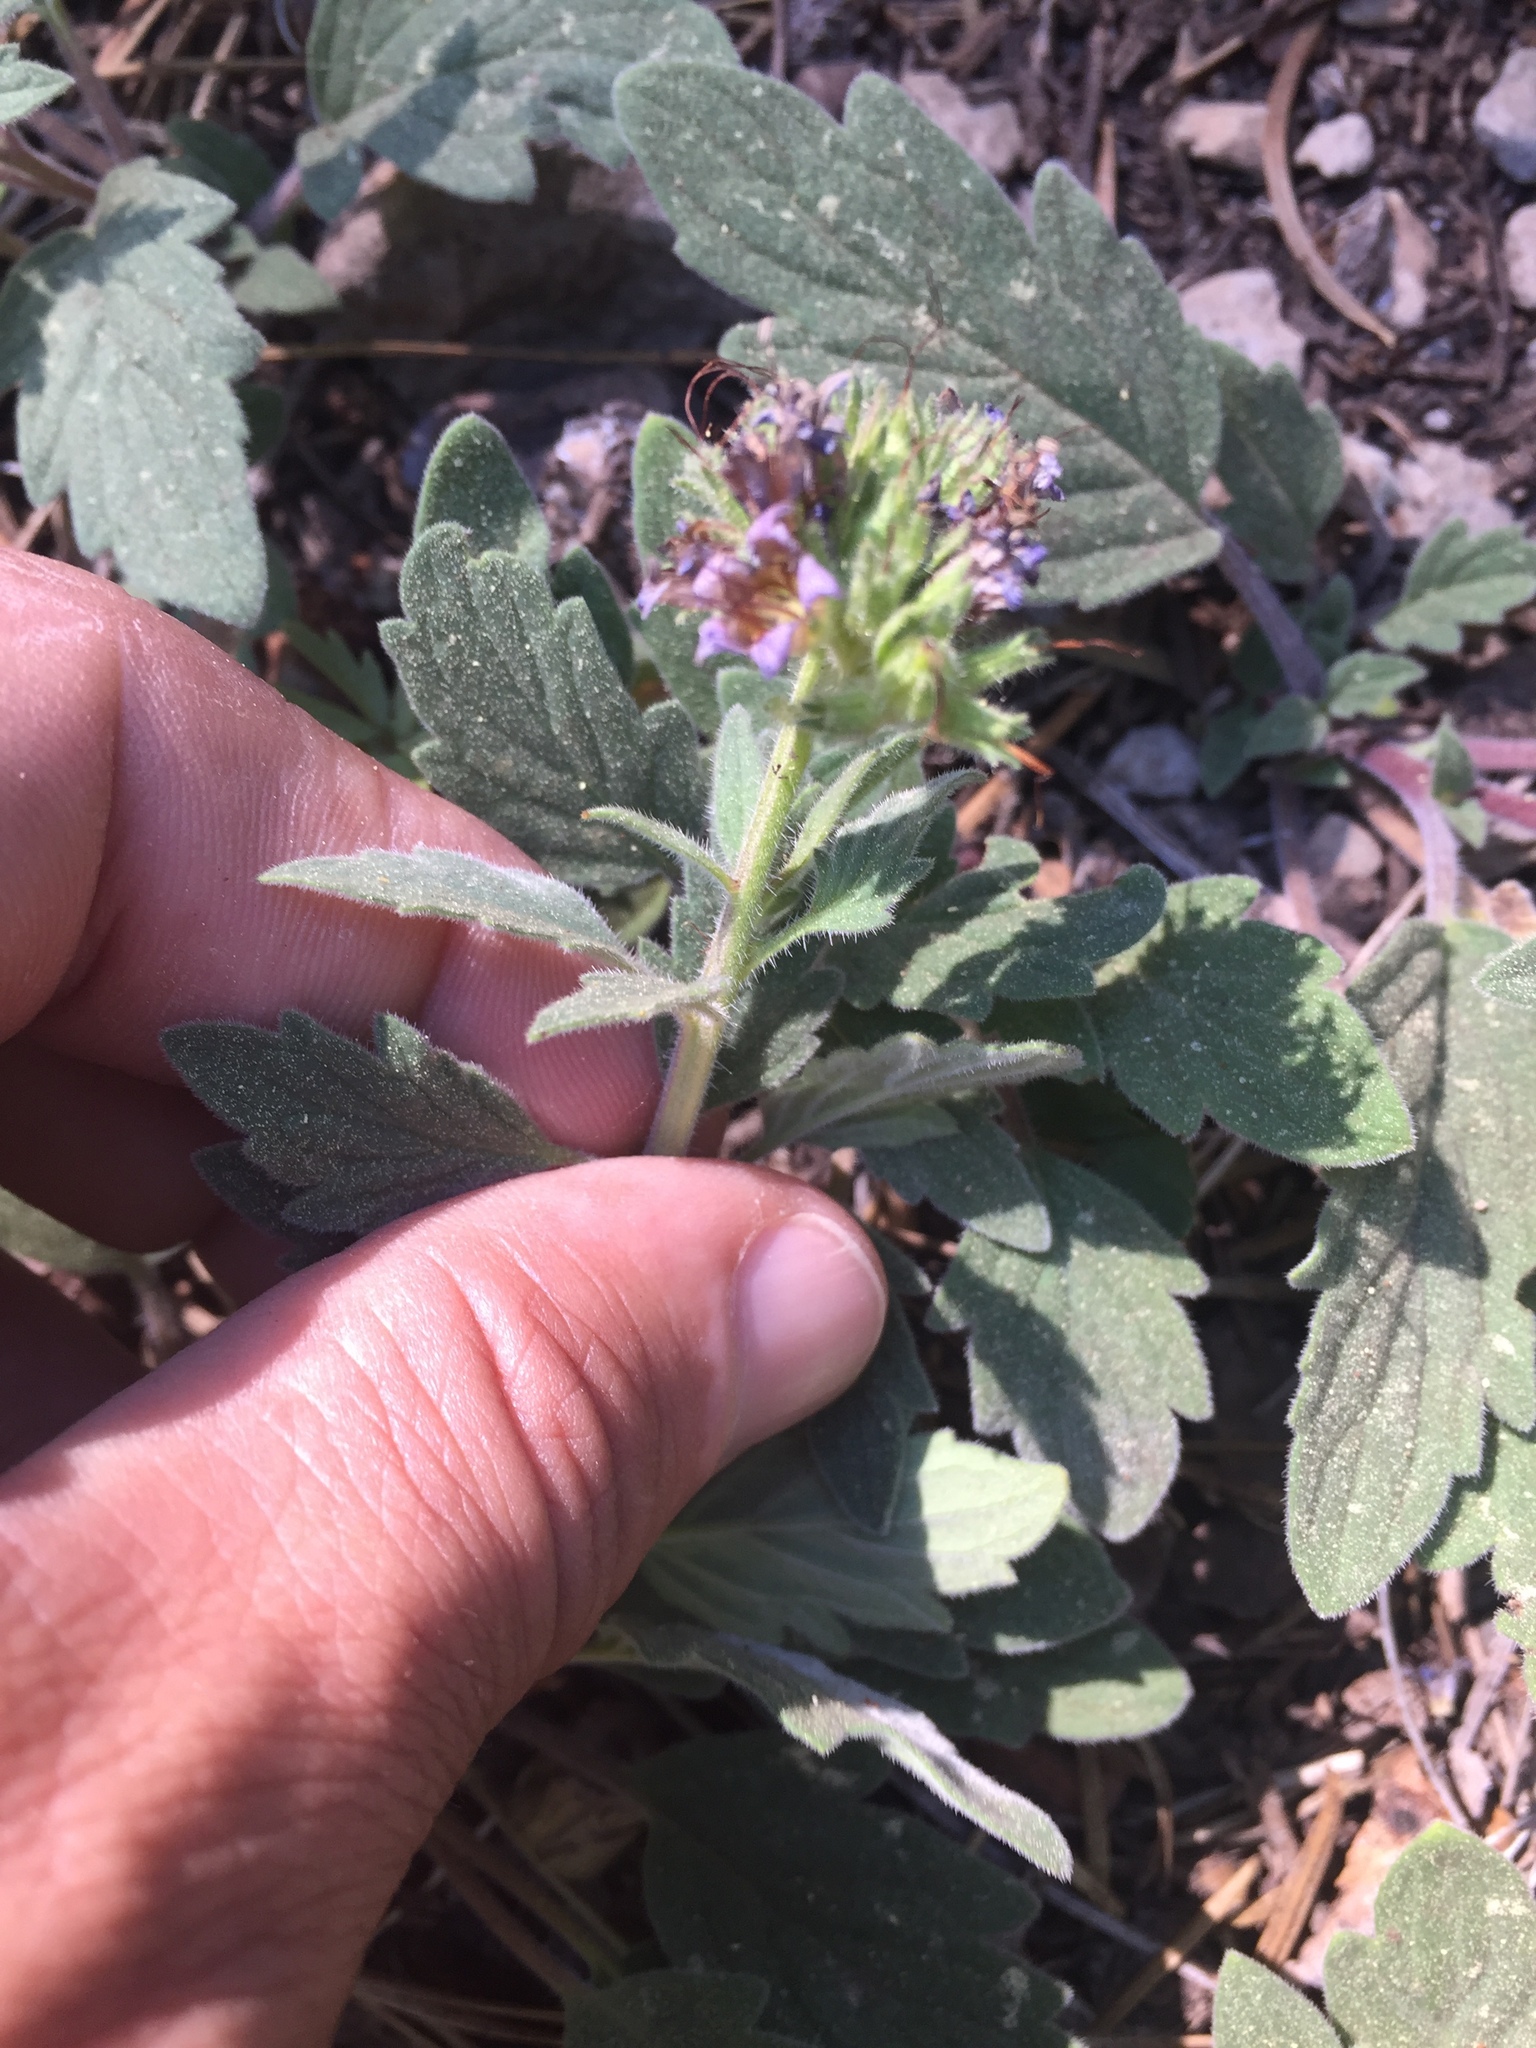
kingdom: Plantae
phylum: Tracheophyta
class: Magnoliopsida
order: Boraginales
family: Hydrophyllaceae
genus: Phacelia
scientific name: Phacelia hydrophylloides
